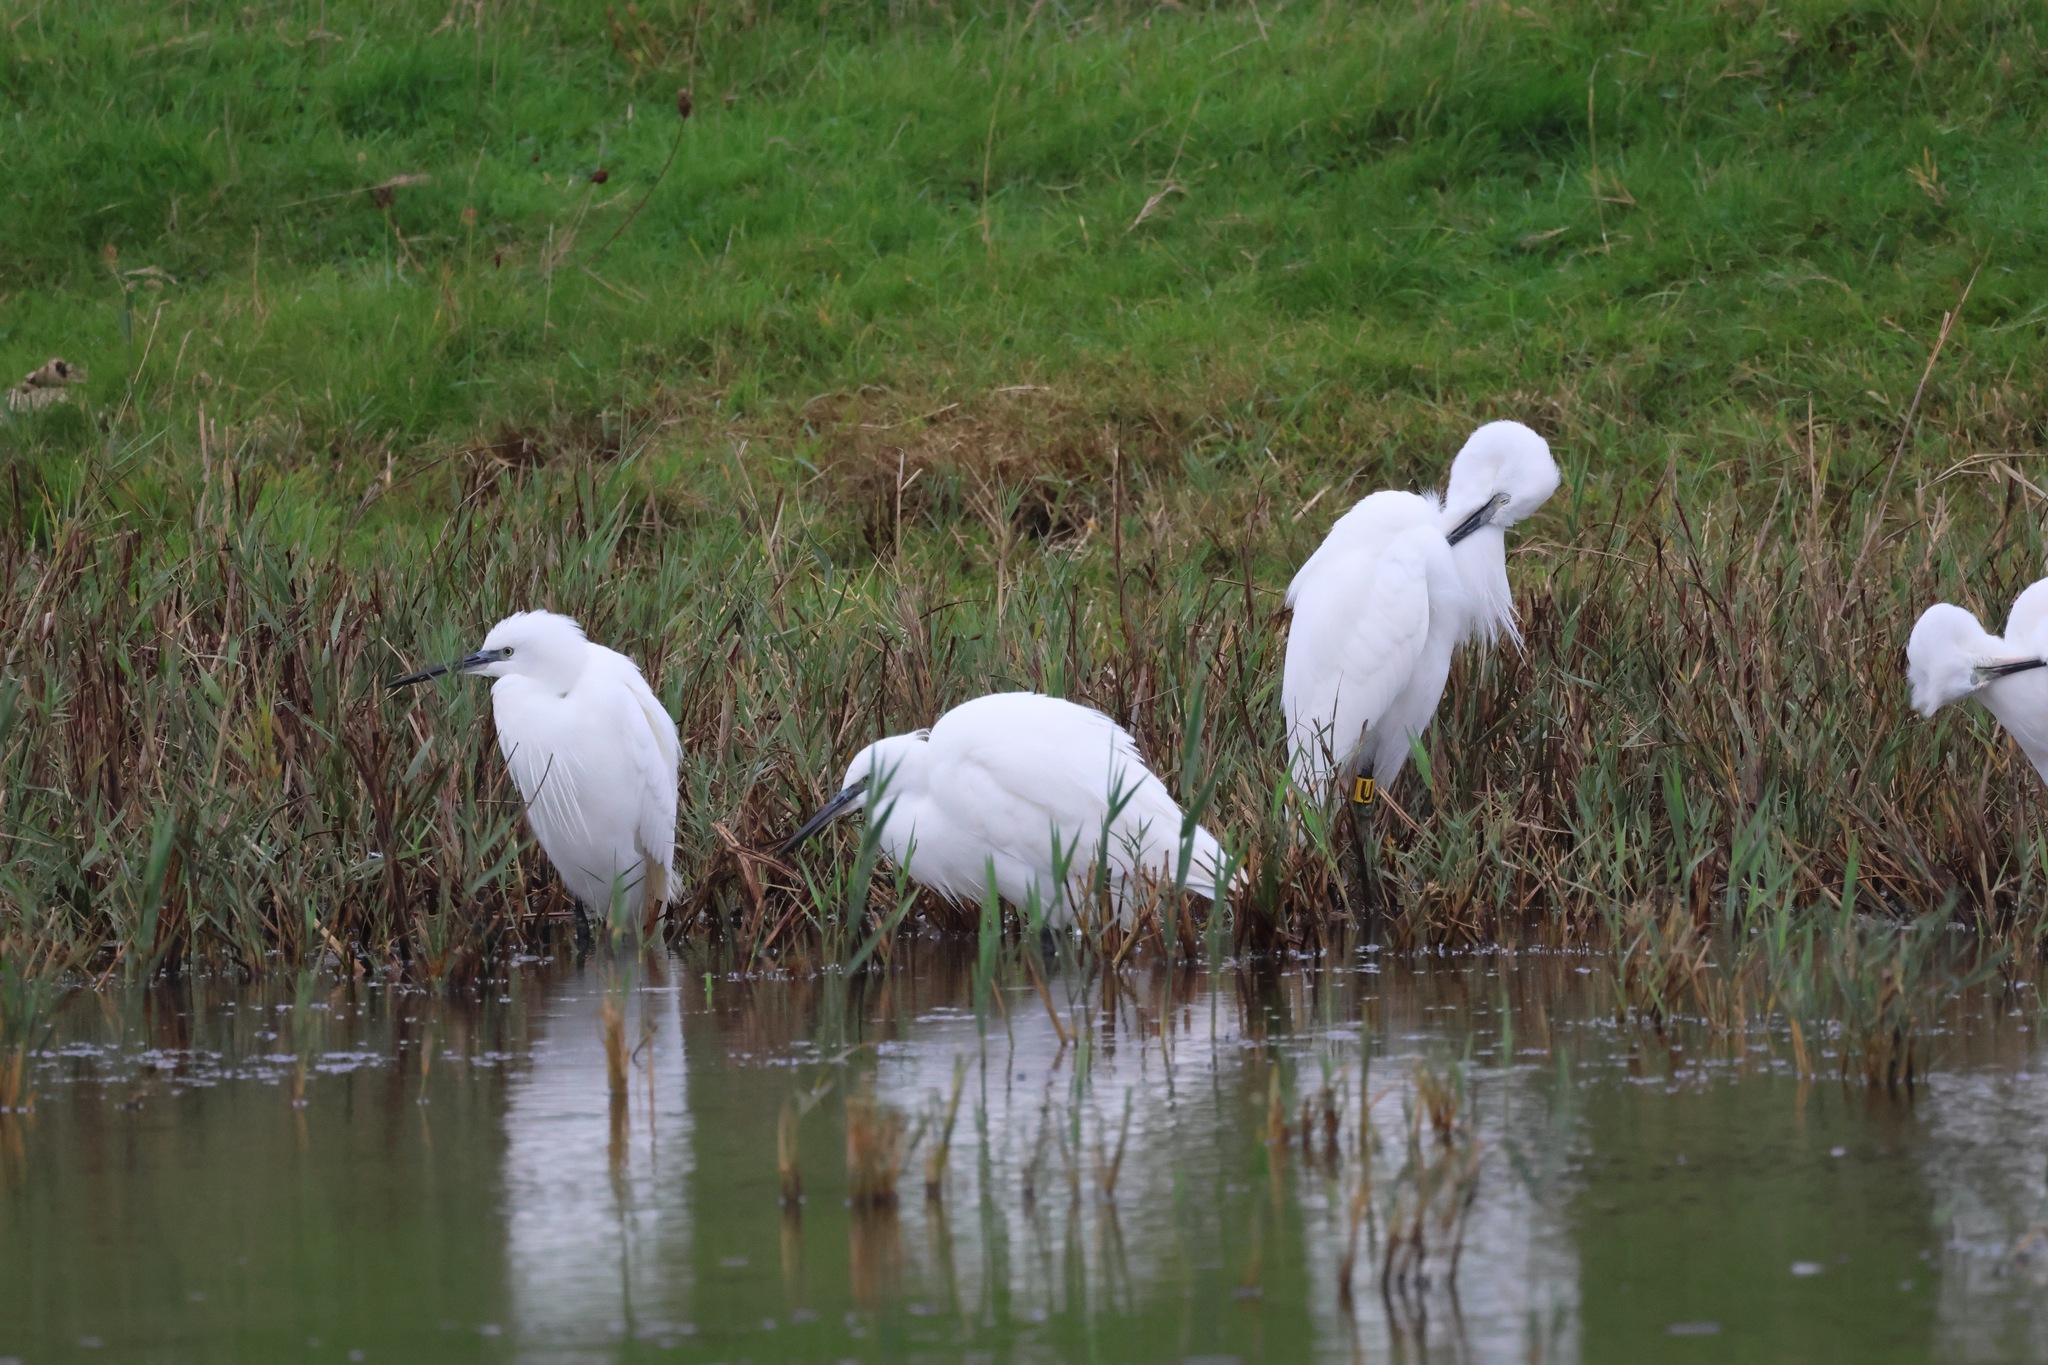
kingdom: Animalia
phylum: Chordata
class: Aves
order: Pelecaniformes
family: Ardeidae
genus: Egretta
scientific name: Egretta garzetta
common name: Little egret
